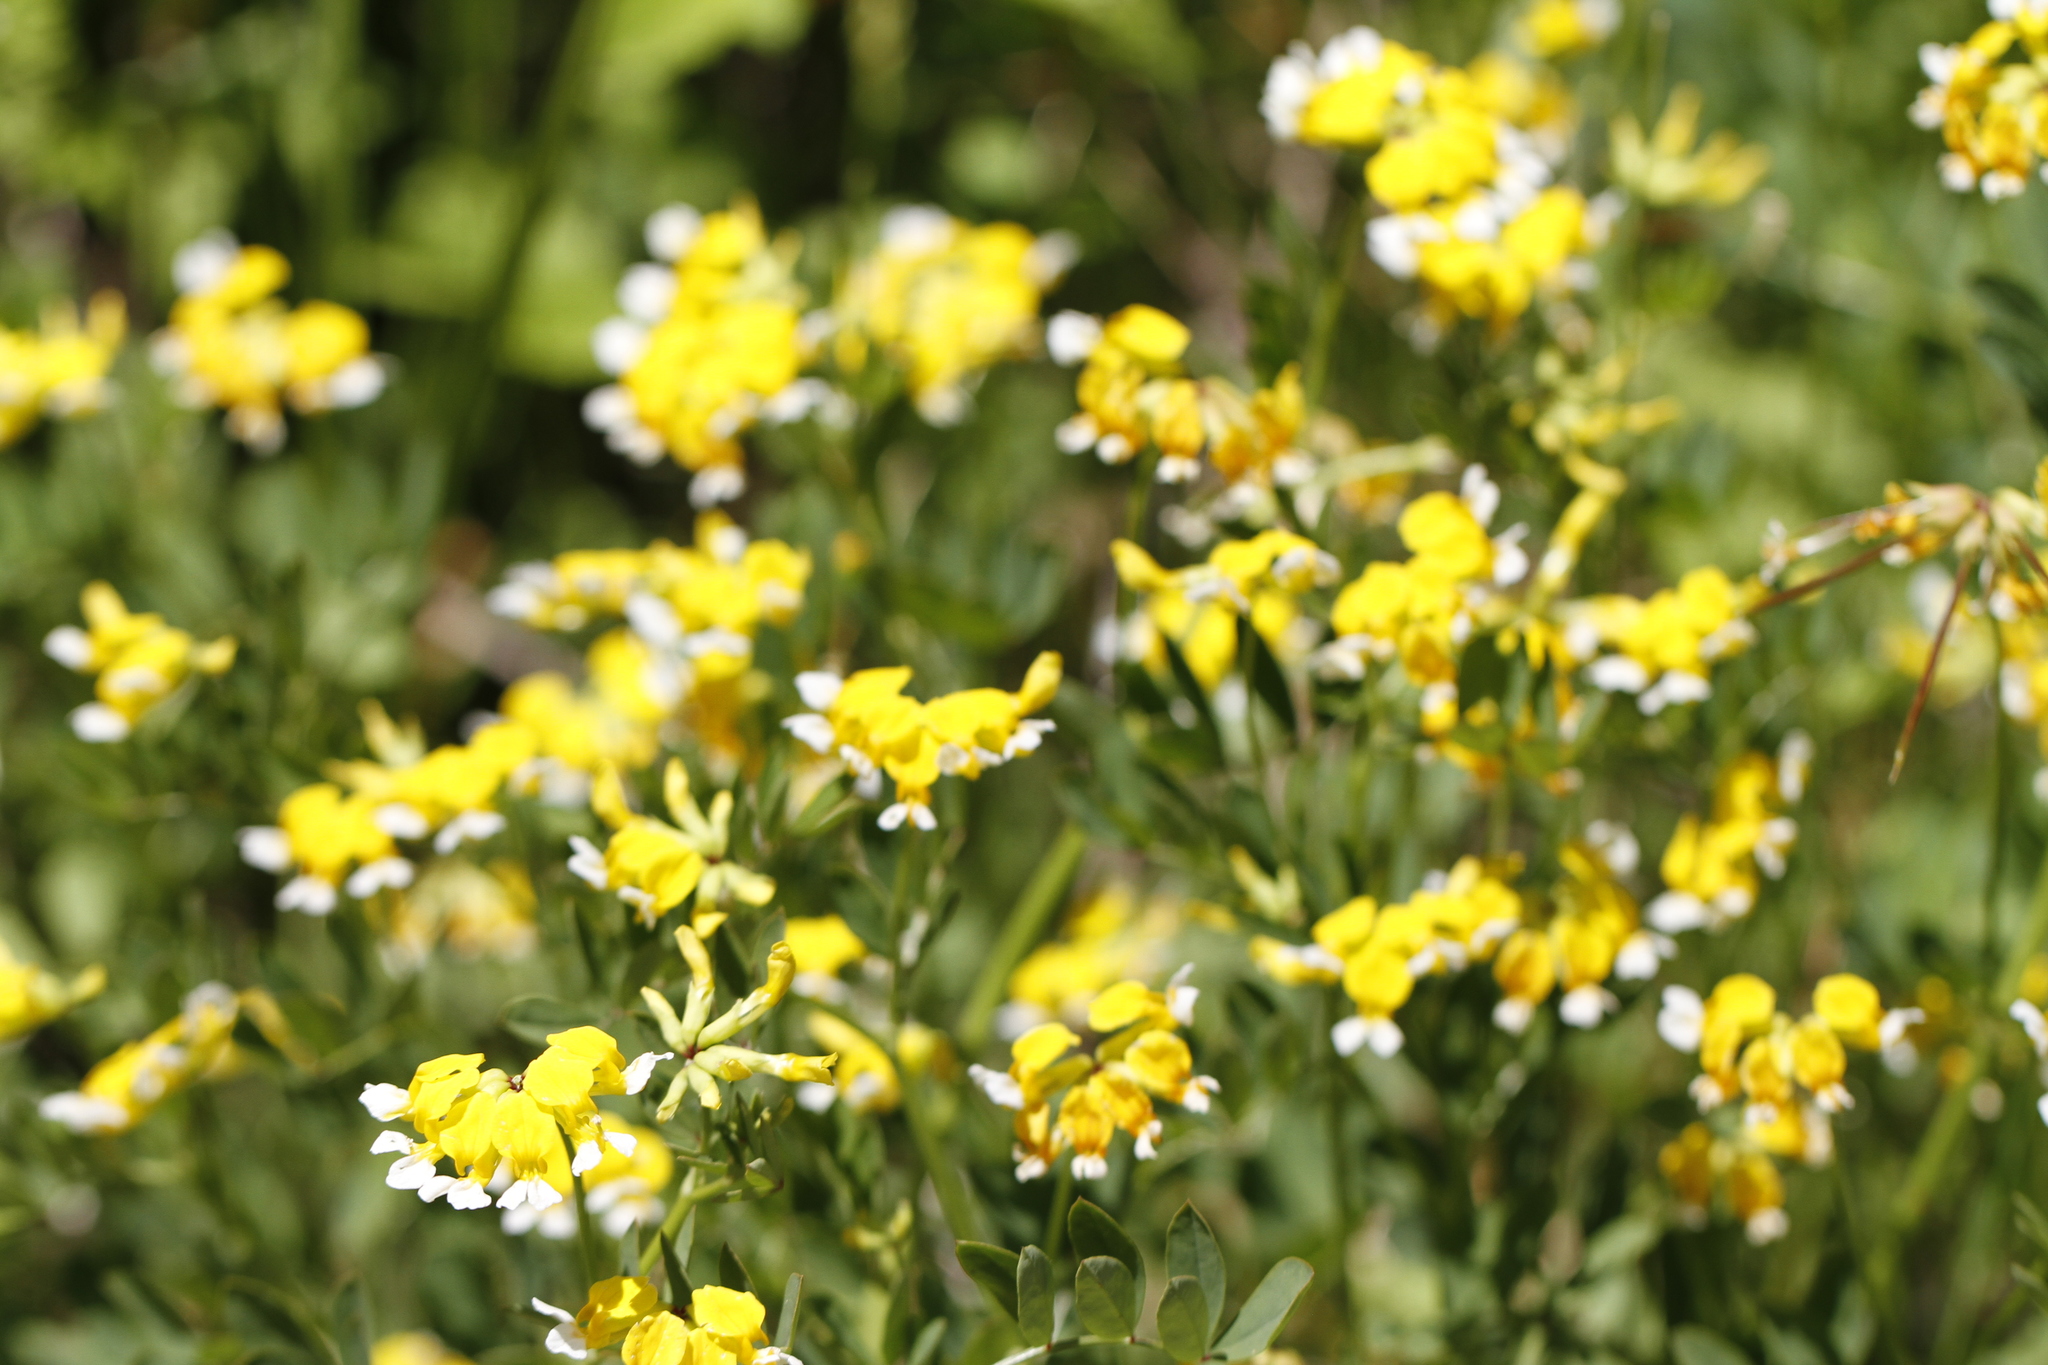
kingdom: Plantae
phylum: Tracheophyta
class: Magnoliopsida
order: Fabales
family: Fabaceae
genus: Hosackia
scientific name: Hosackia pinnata
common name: Bog bird's-foot trefoil
